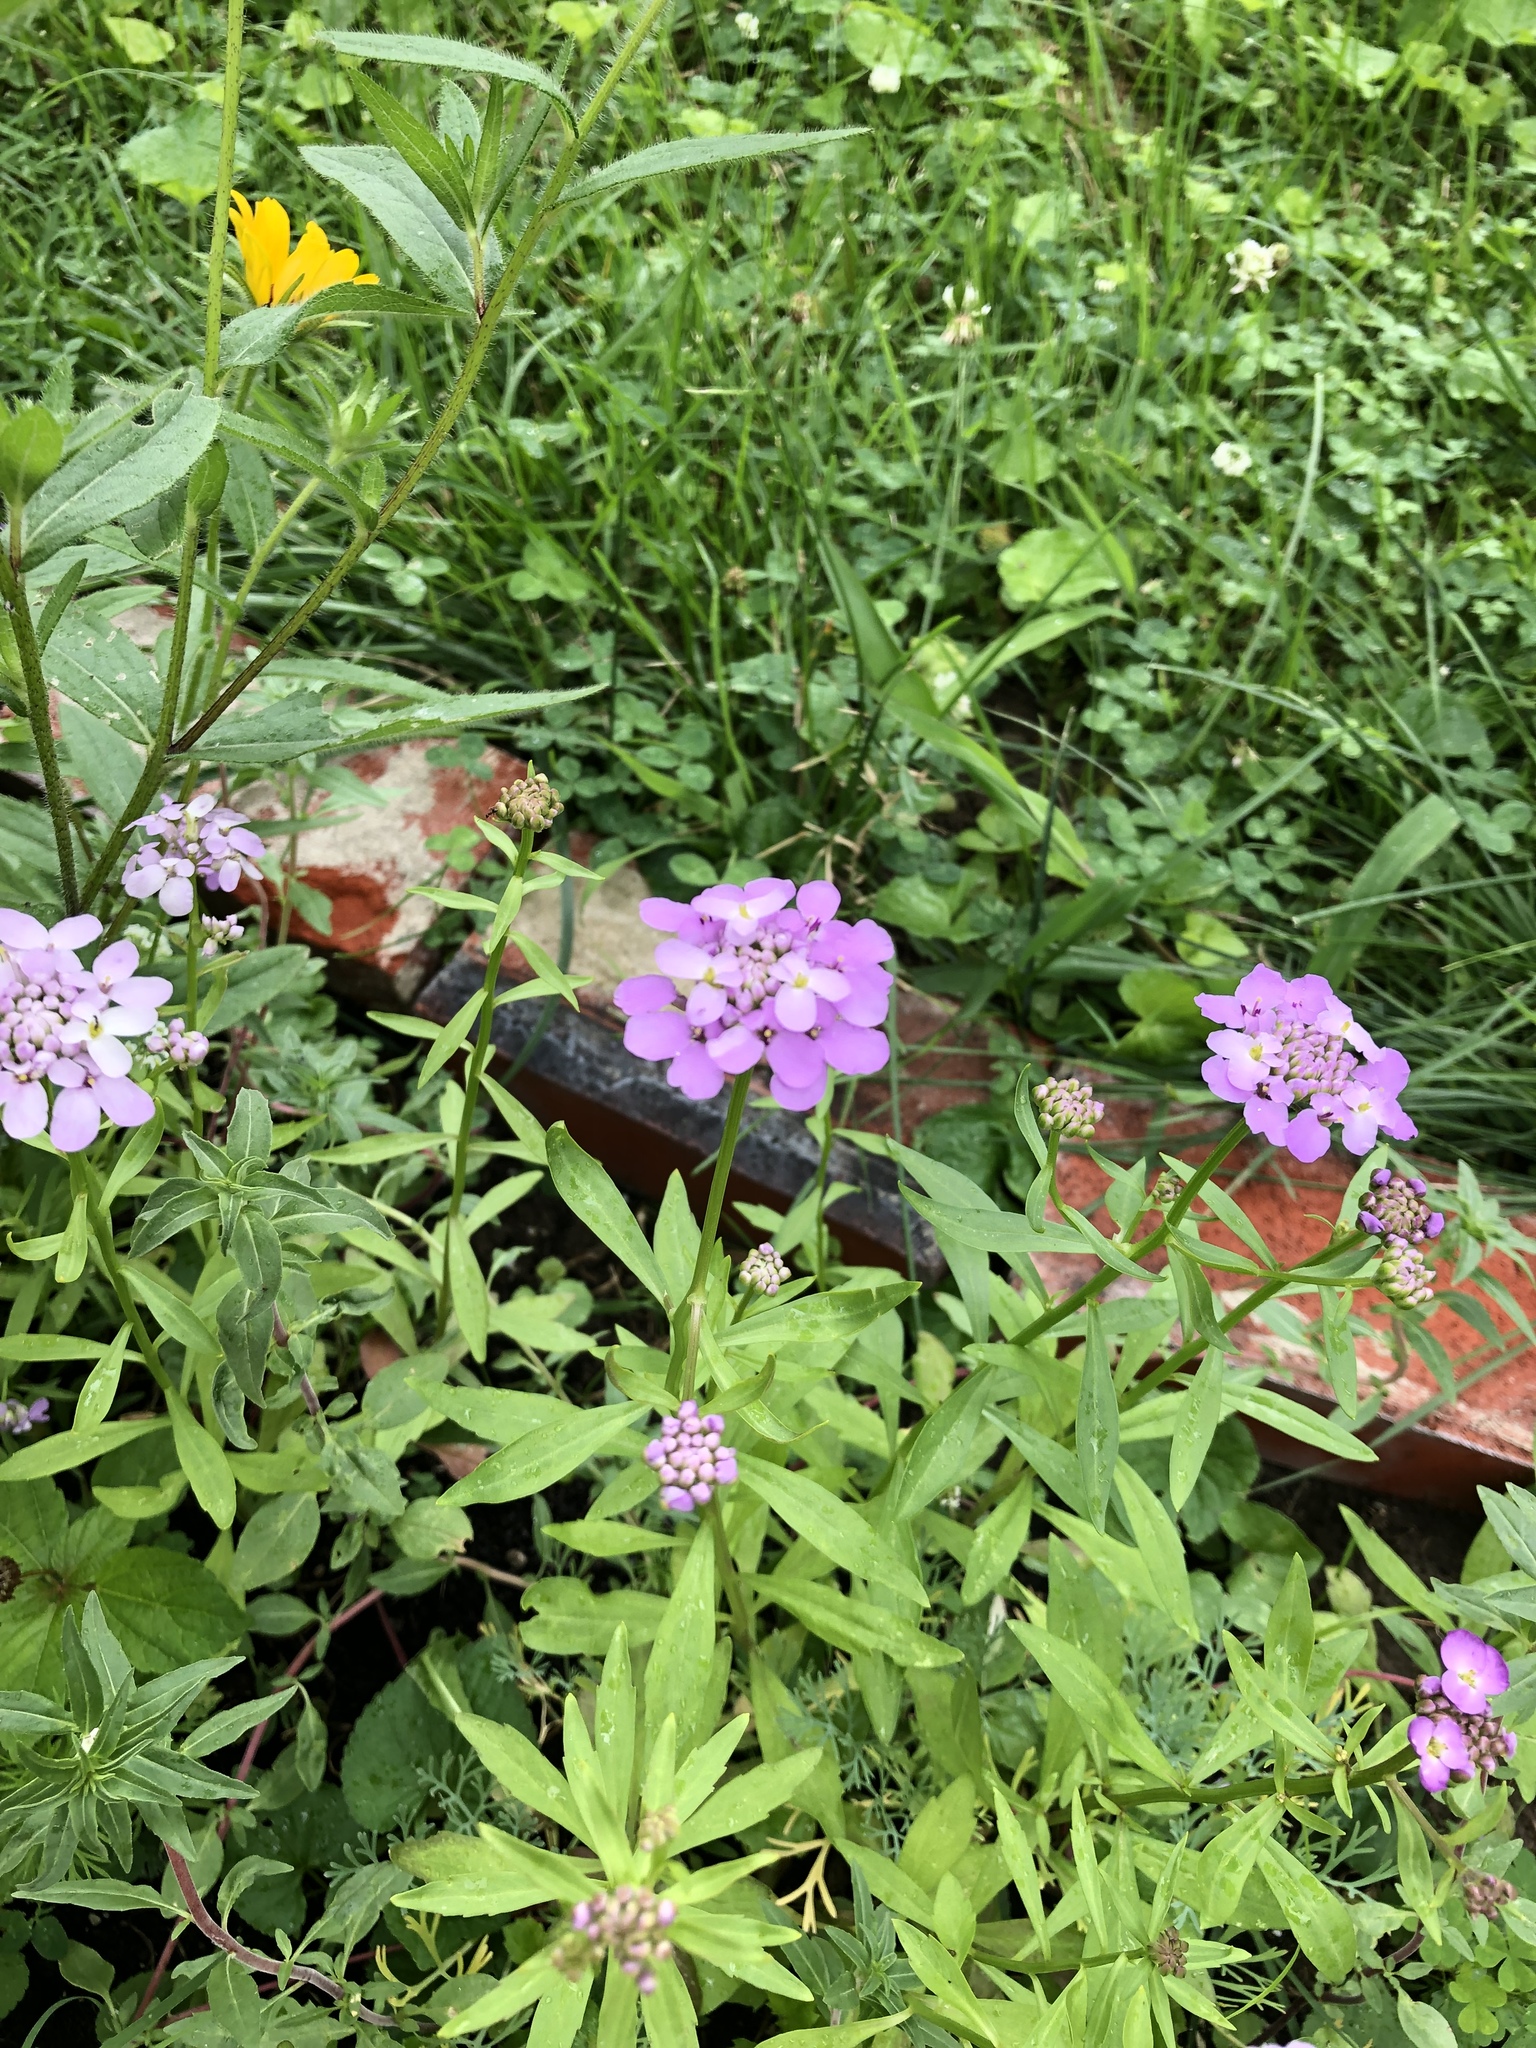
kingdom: Plantae
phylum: Tracheophyta
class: Magnoliopsida
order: Brassicales
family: Brassicaceae
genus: Hesperis
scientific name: Hesperis matronalis
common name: Dame's-violet
